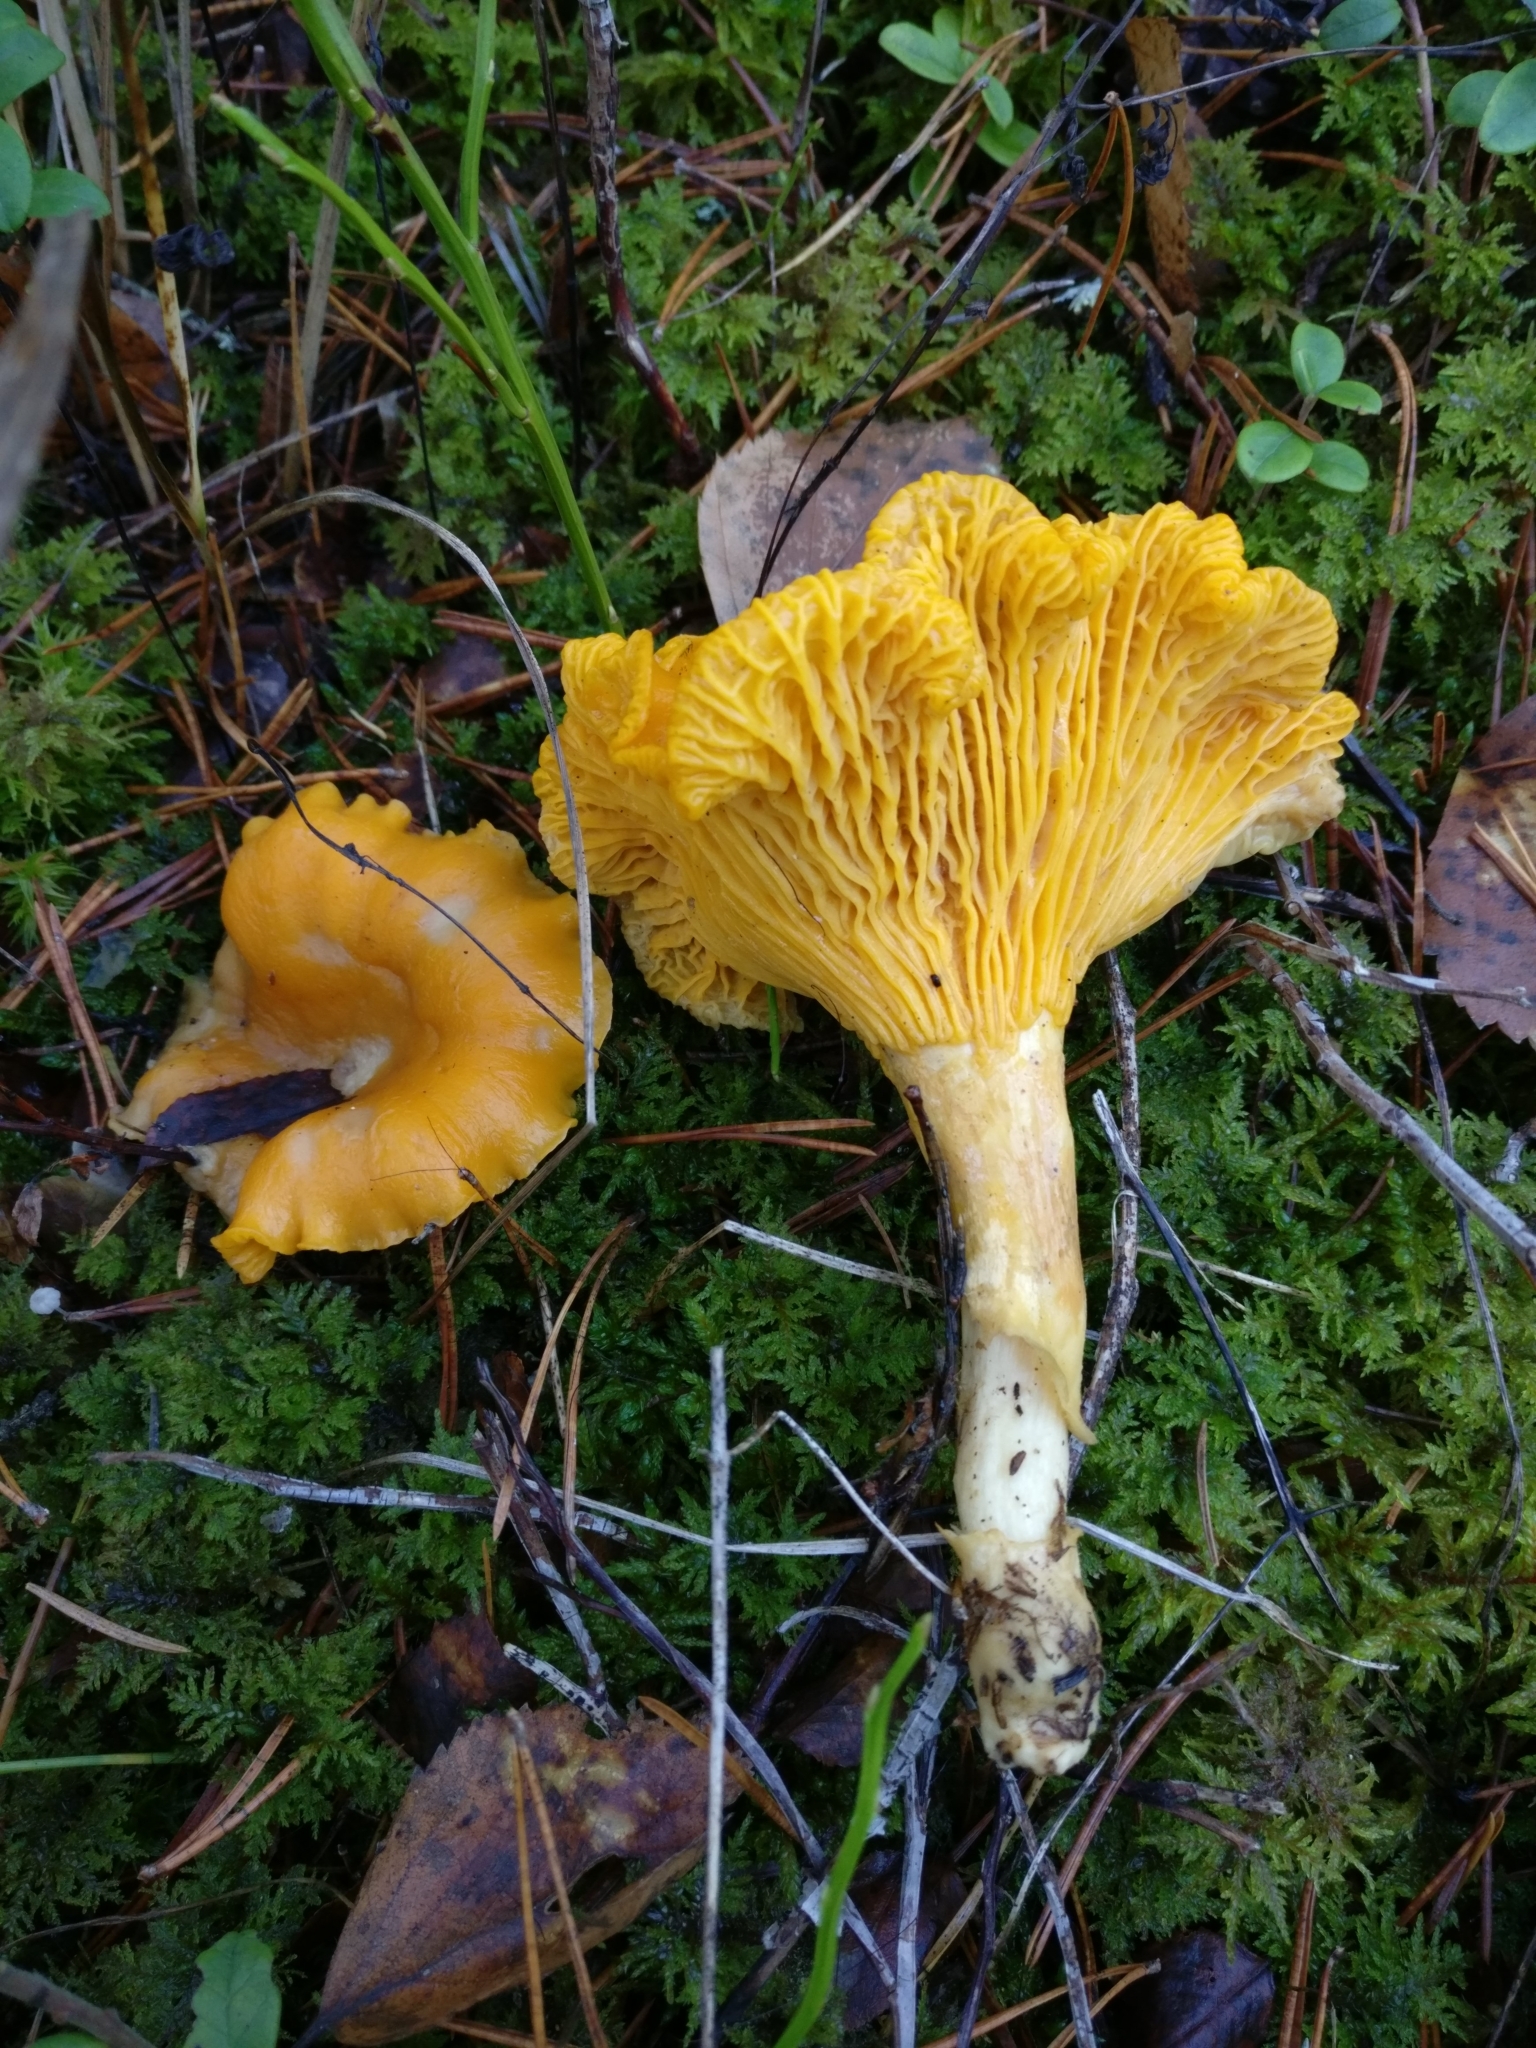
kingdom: Fungi
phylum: Basidiomycota
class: Agaricomycetes
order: Cantharellales
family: Hydnaceae
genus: Cantharellus
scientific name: Cantharellus cibarius
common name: Chanterelle
